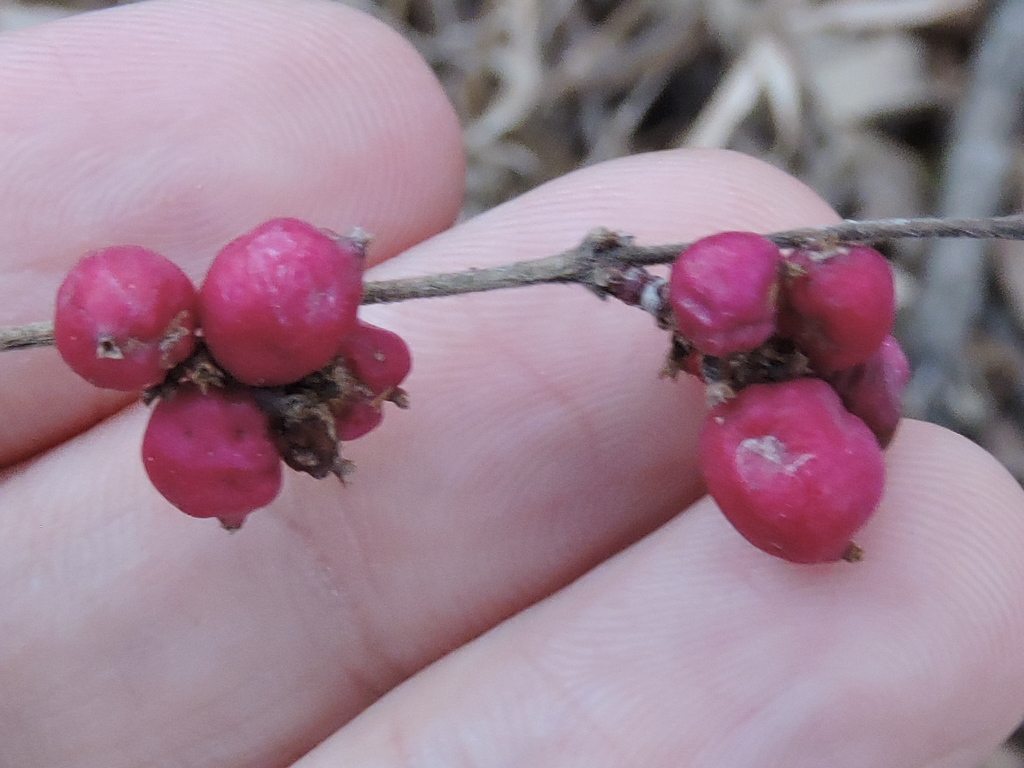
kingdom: Plantae
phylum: Tracheophyta
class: Magnoliopsida
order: Dipsacales
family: Caprifoliaceae
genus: Symphoricarpos
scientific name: Symphoricarpos orbiculatus
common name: Coralberry
